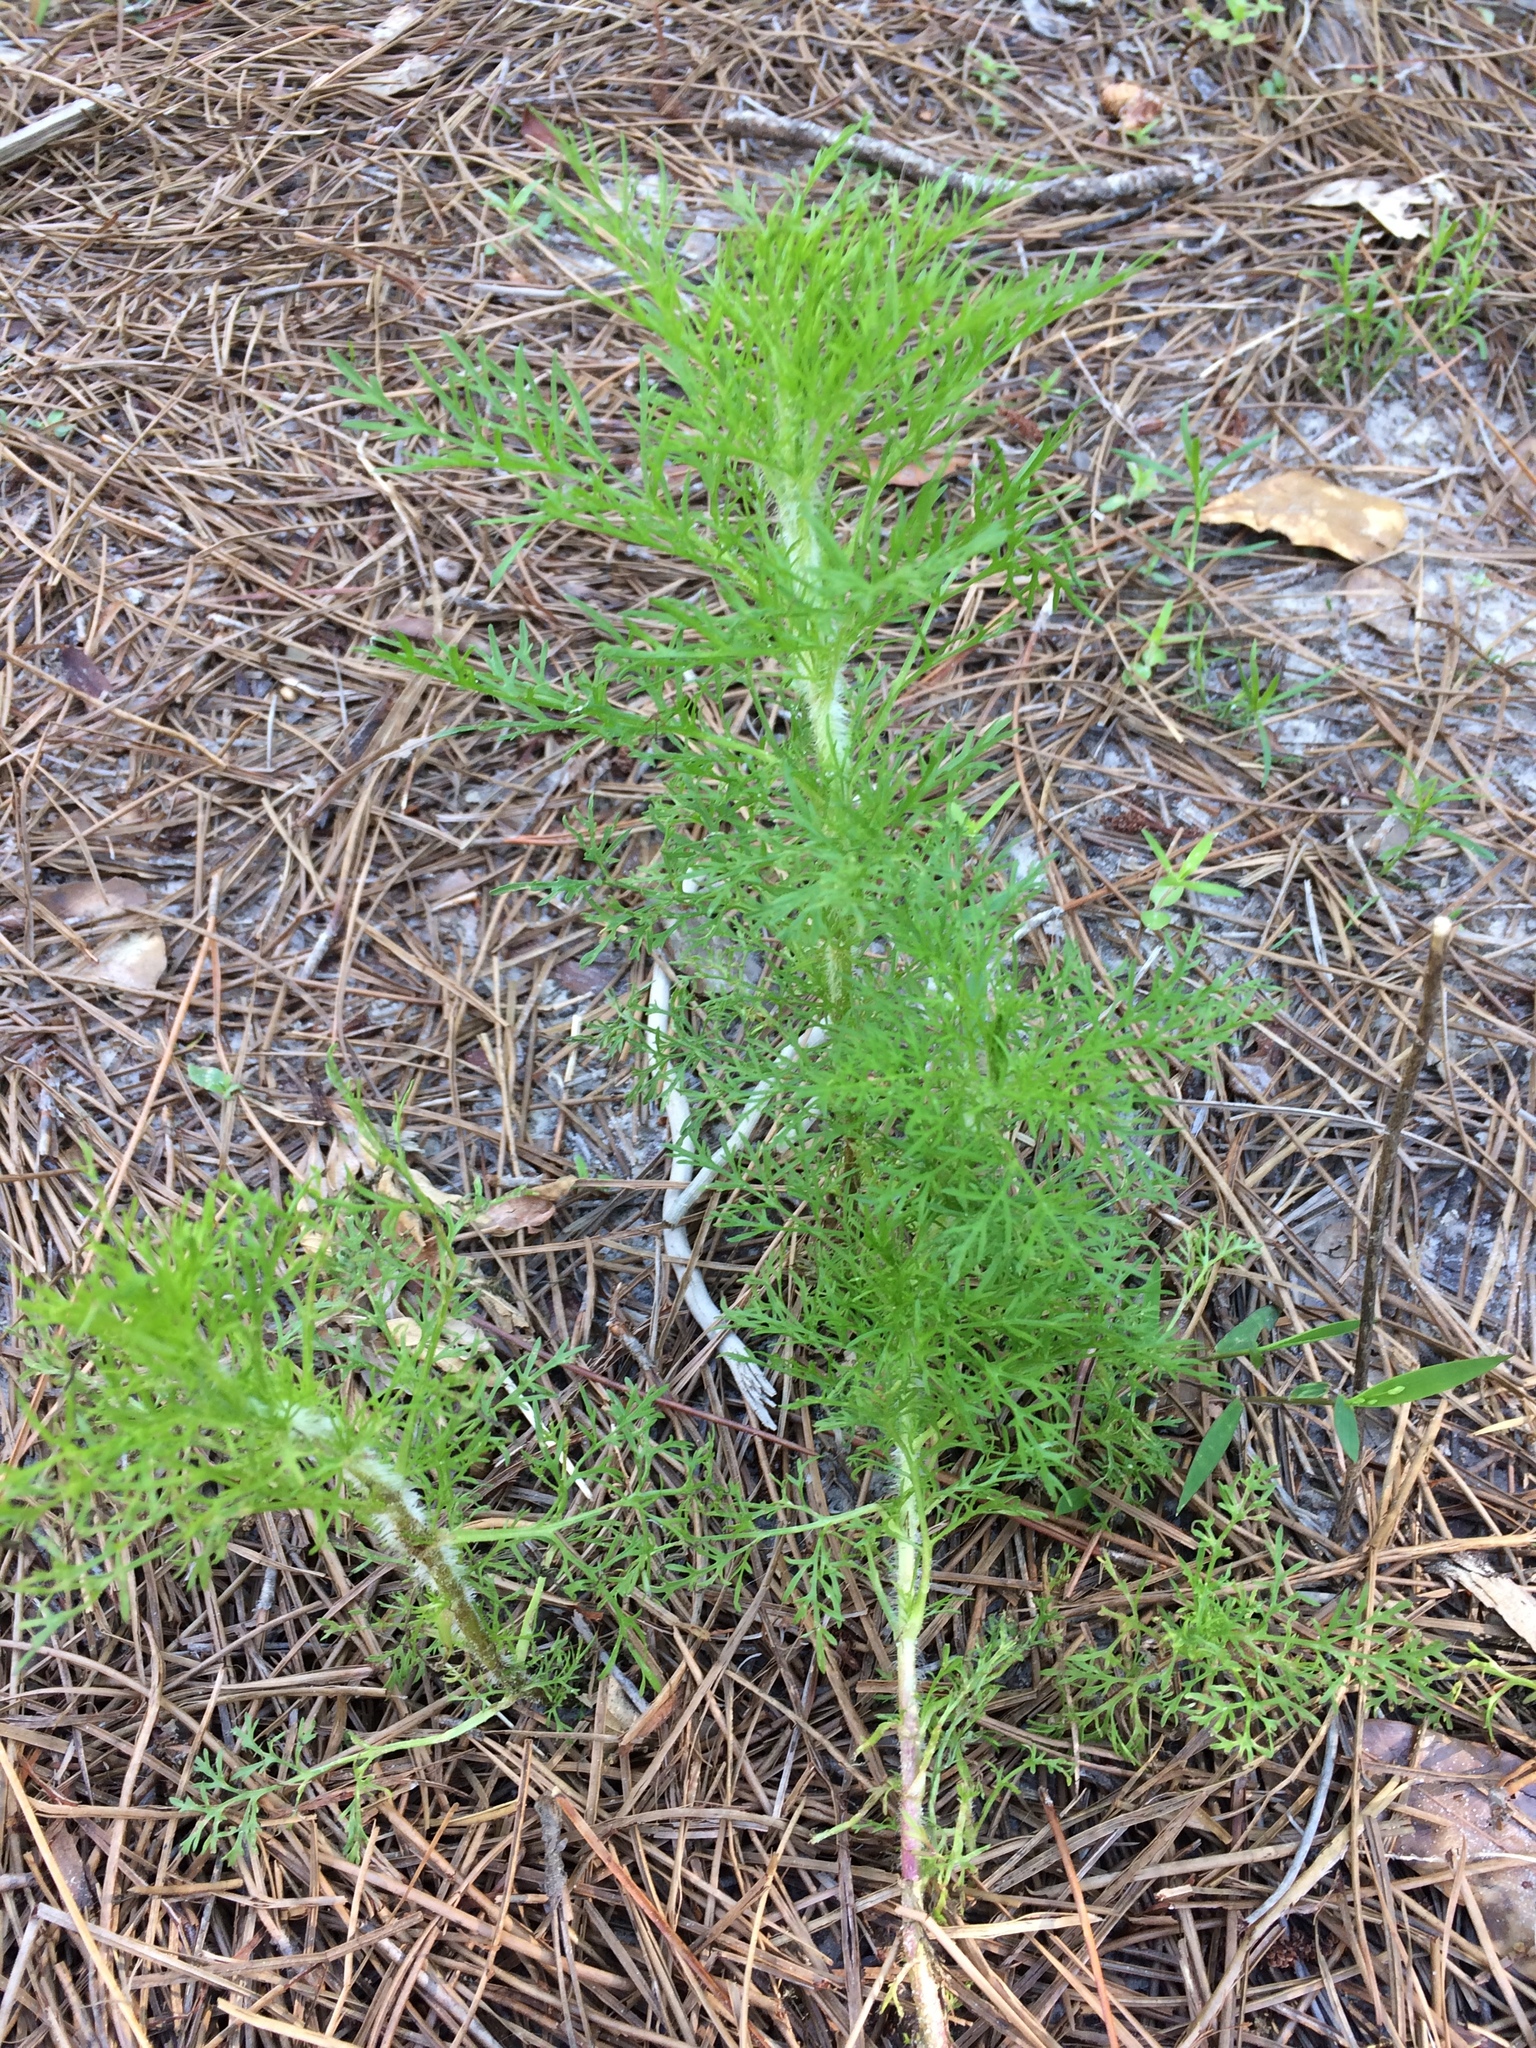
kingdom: Plantae
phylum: Tracheophyta
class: Magnoliopsida
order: Asterales
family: Asteraceae
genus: Eupatorium
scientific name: Eupatorium capillifolium
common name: Dog-fennel
